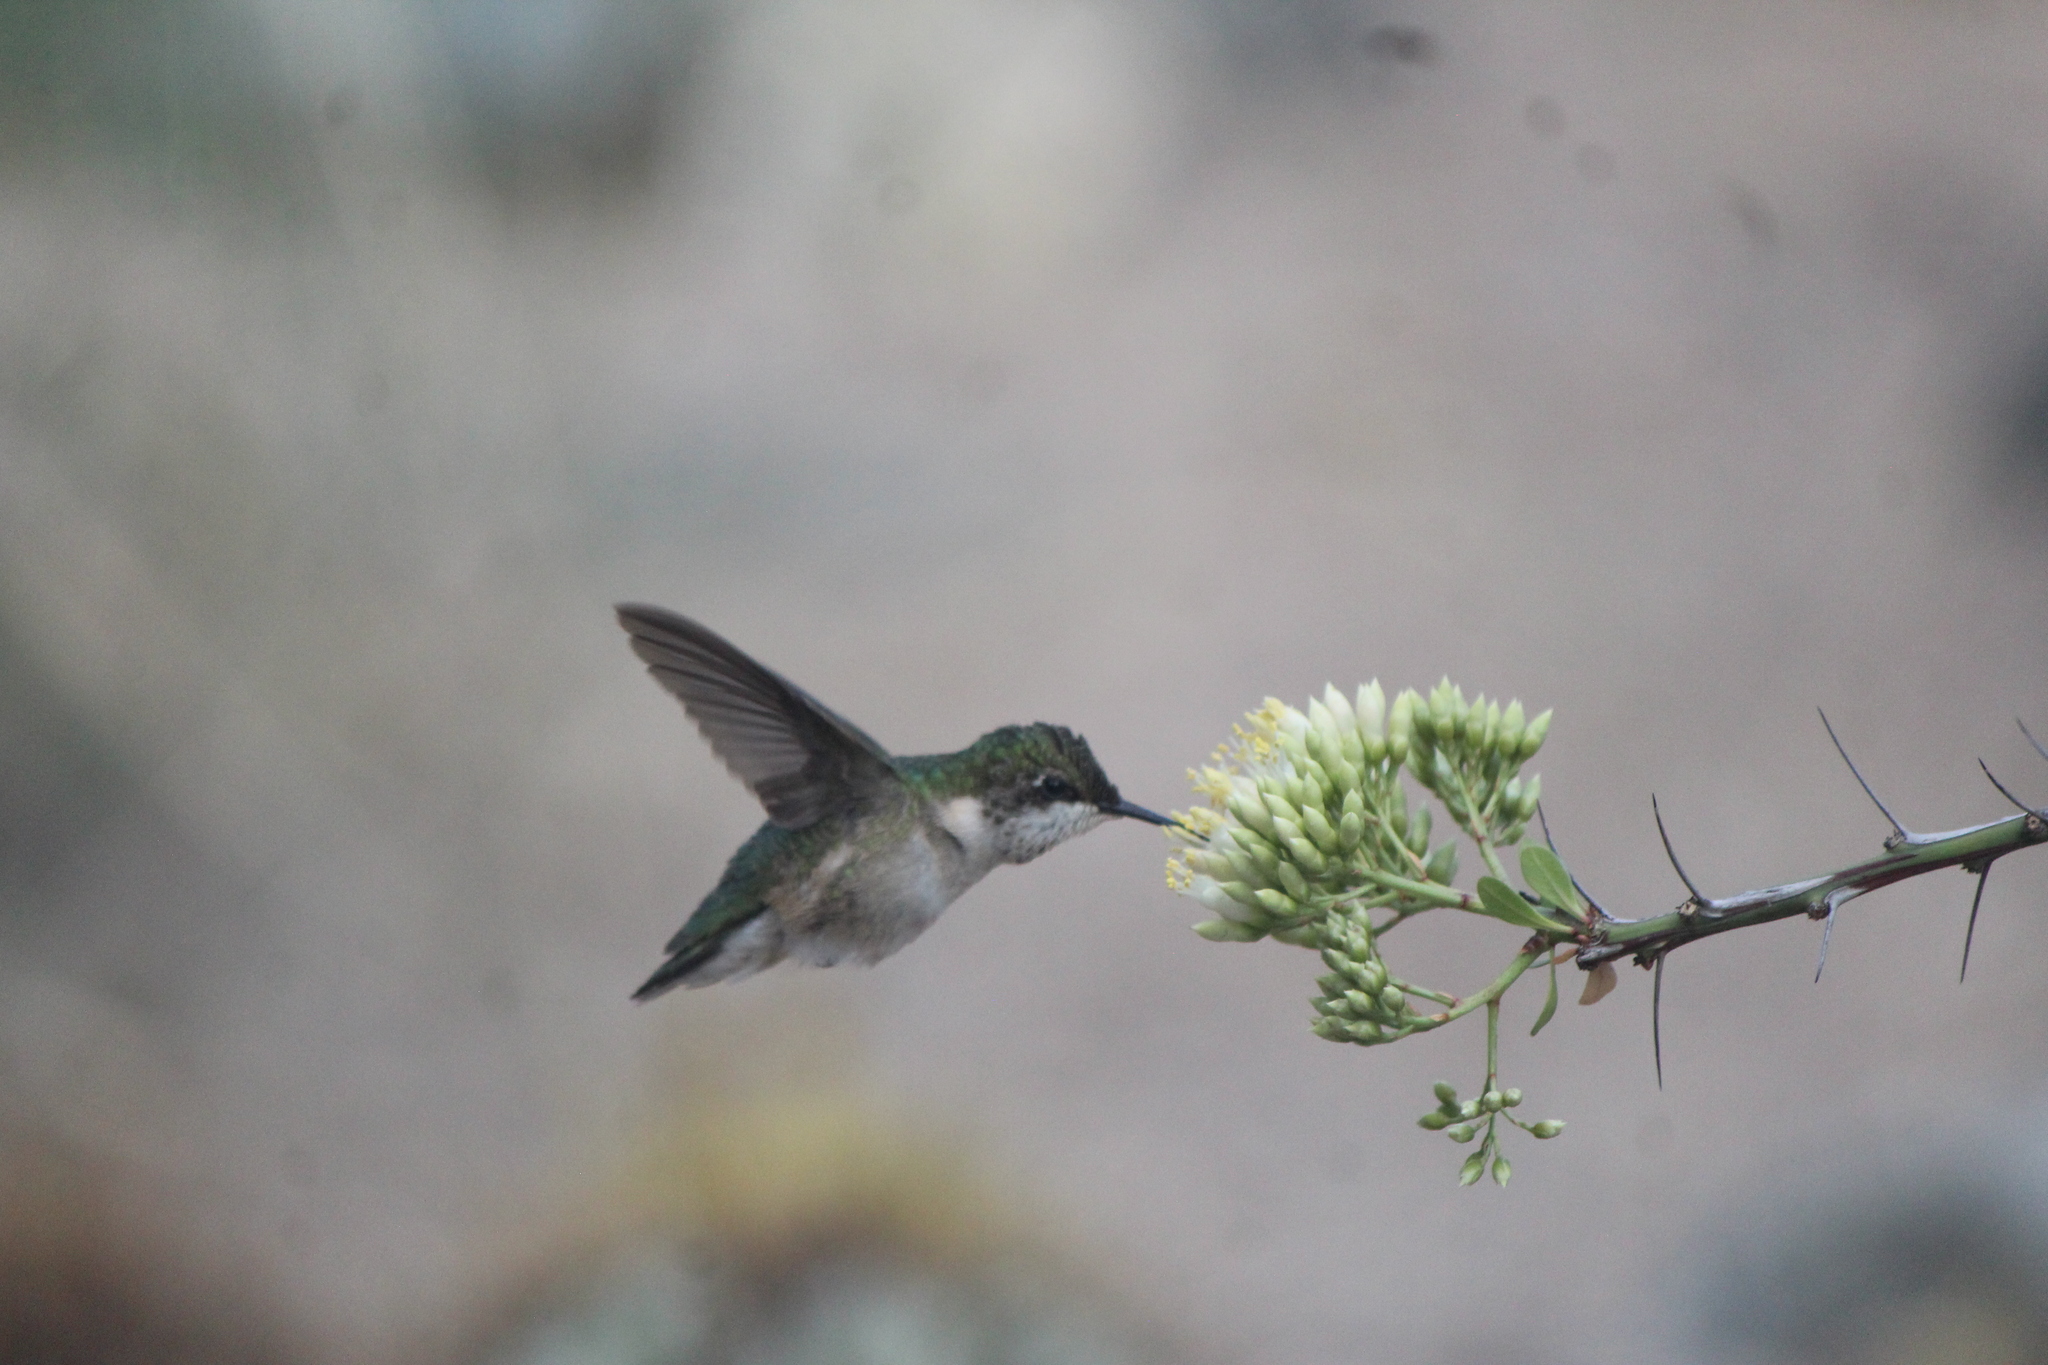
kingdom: Animalia
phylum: Chordata
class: Aves
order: Apodiformes
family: Trochilidae
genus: Archilochus
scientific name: Archilochus colubris
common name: Ruby-throated hummingbird
